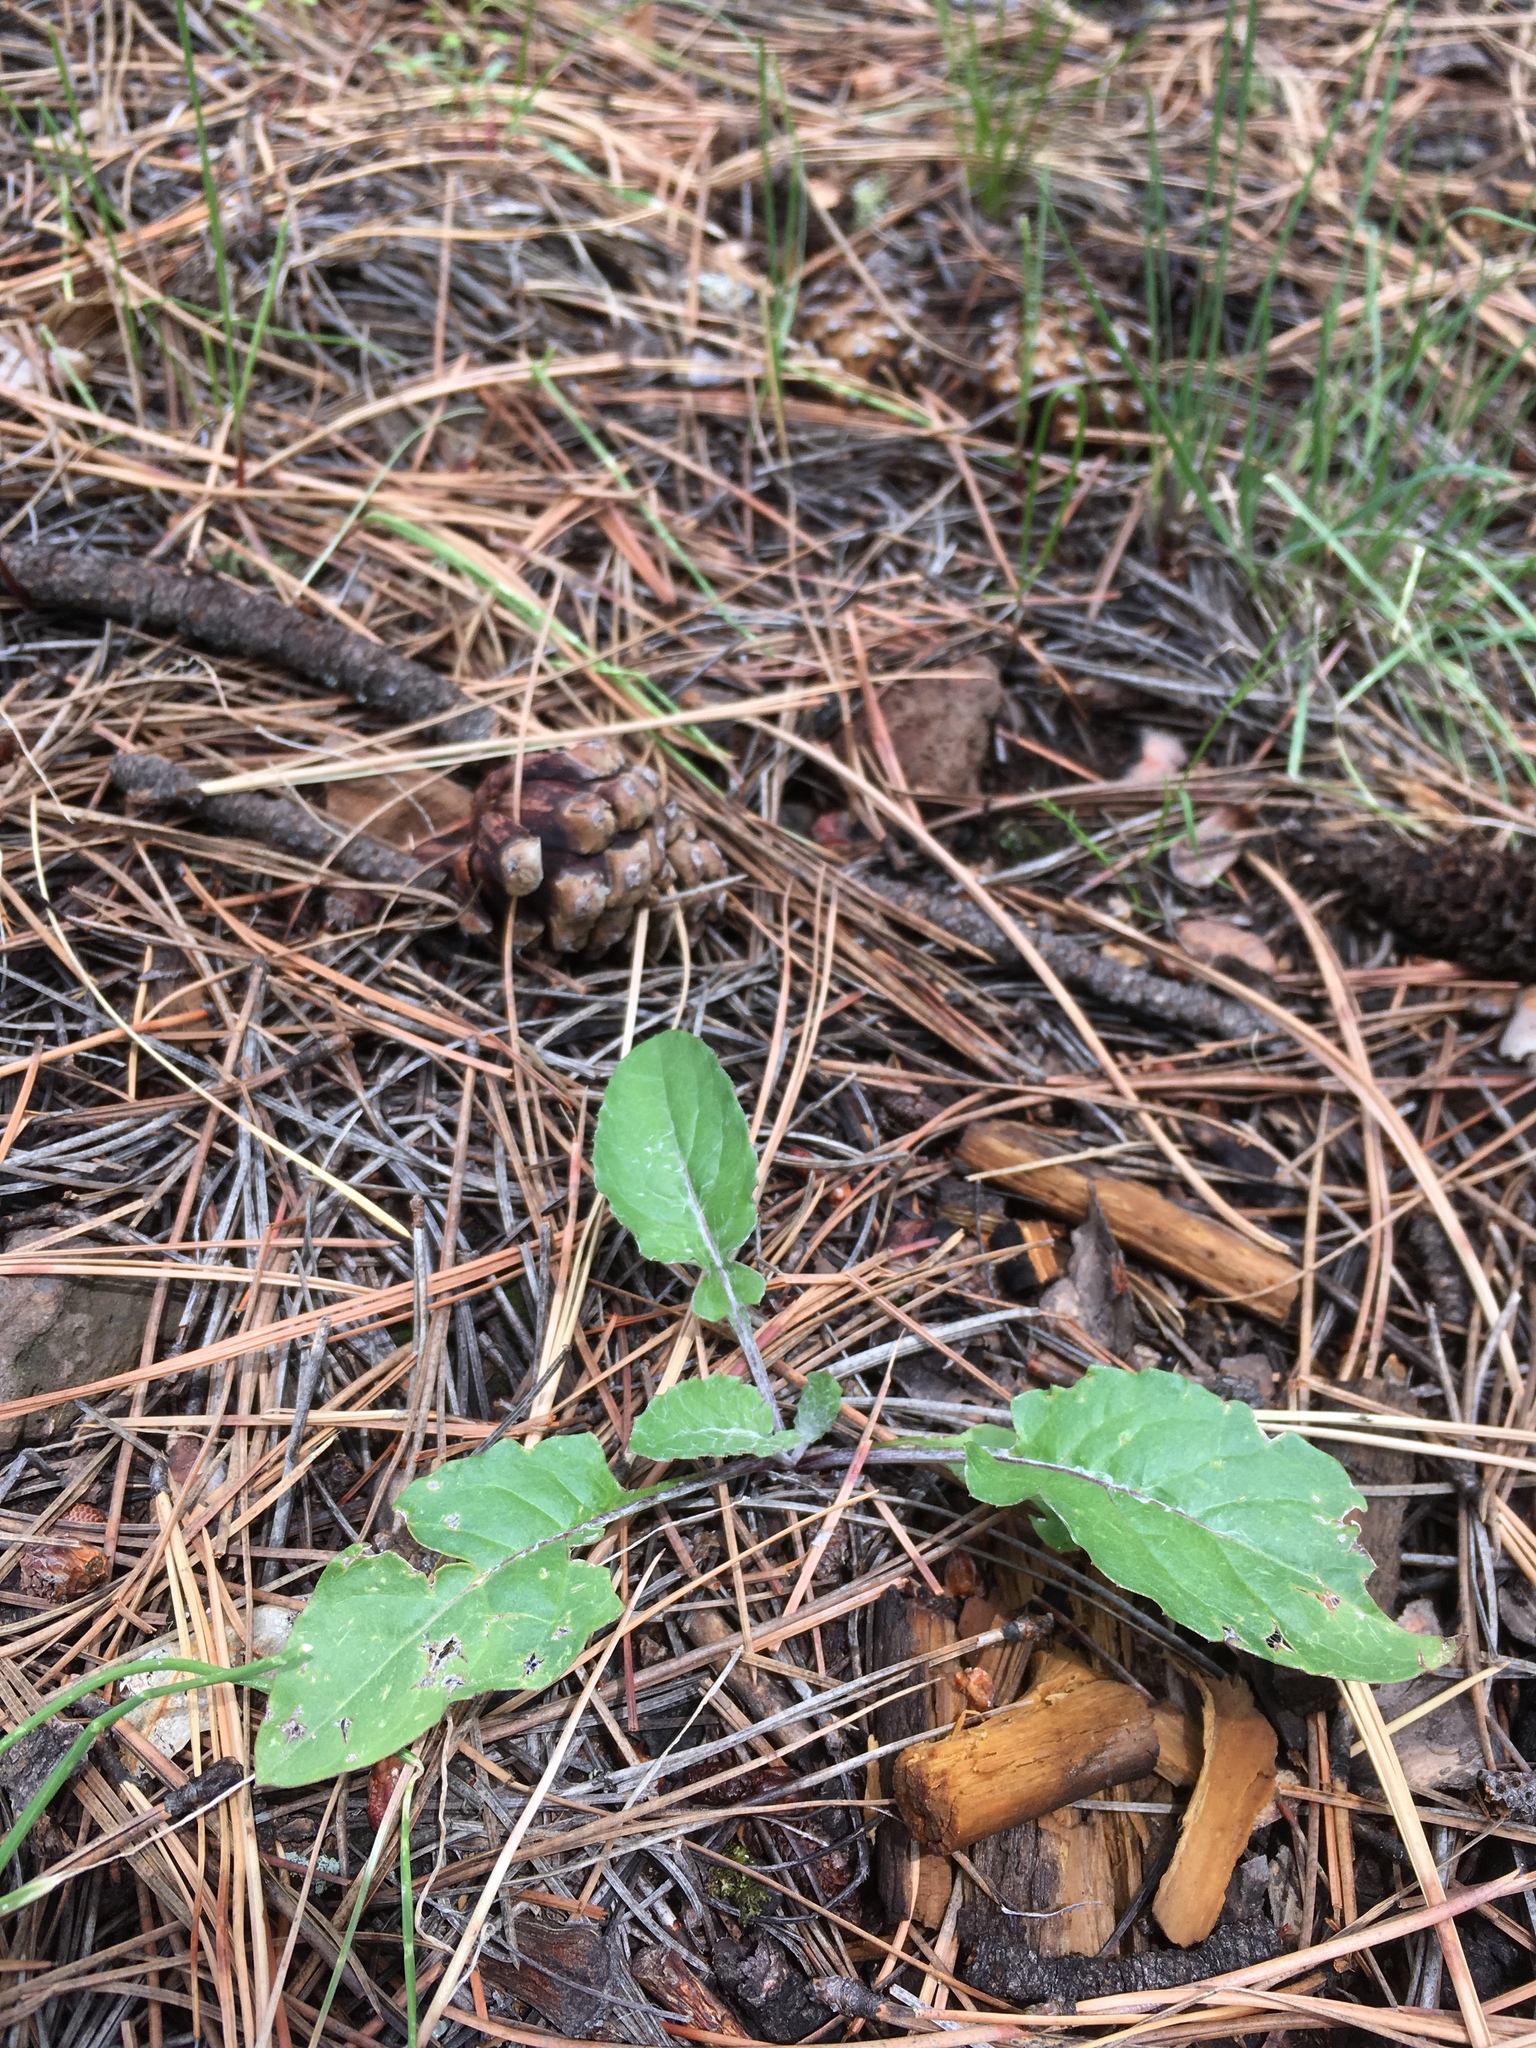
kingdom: Plantae
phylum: Tracheophyta
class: Magnoliopsida
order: Asterales
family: Asteraceae
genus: Leibnitzia
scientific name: Leibnitzia lyrata
